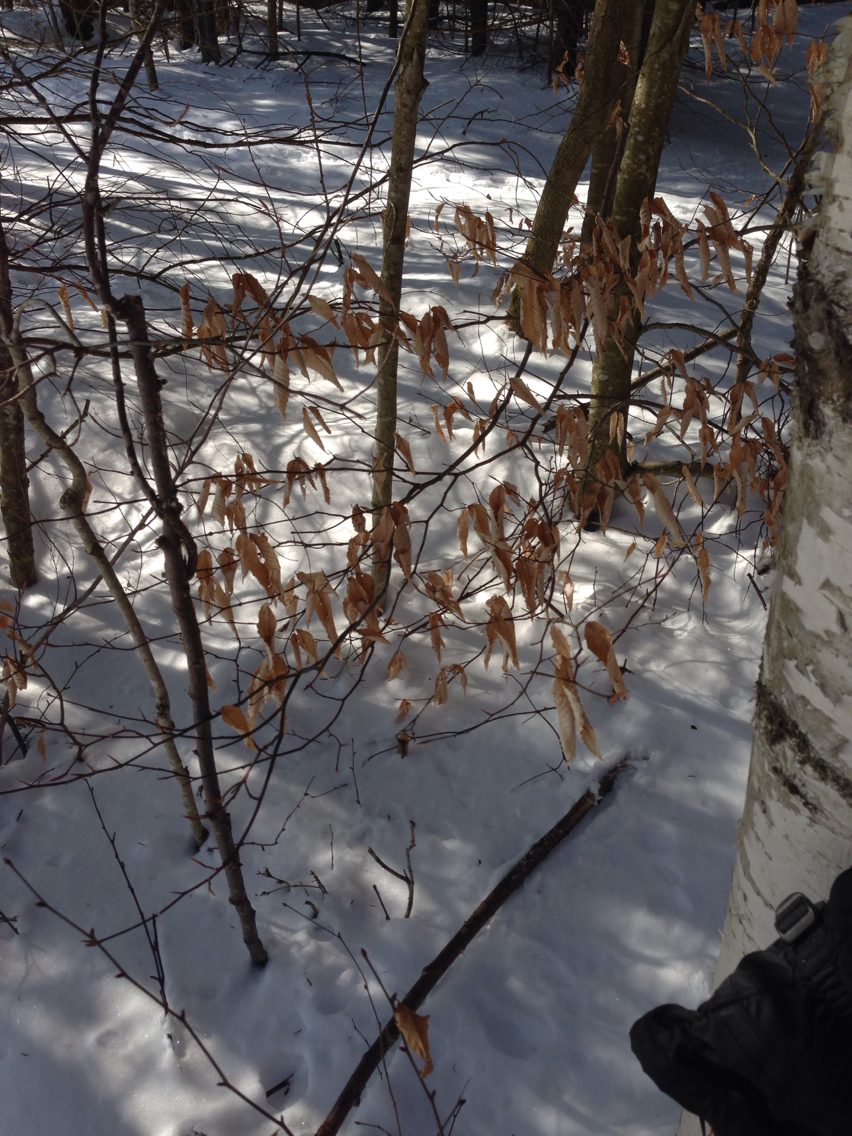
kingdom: Plantae
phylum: Tracheophyta
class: Magnoliopsida
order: Fagales
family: Fagaceae
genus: Fagus
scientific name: Fagus grandifolia
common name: American beech
